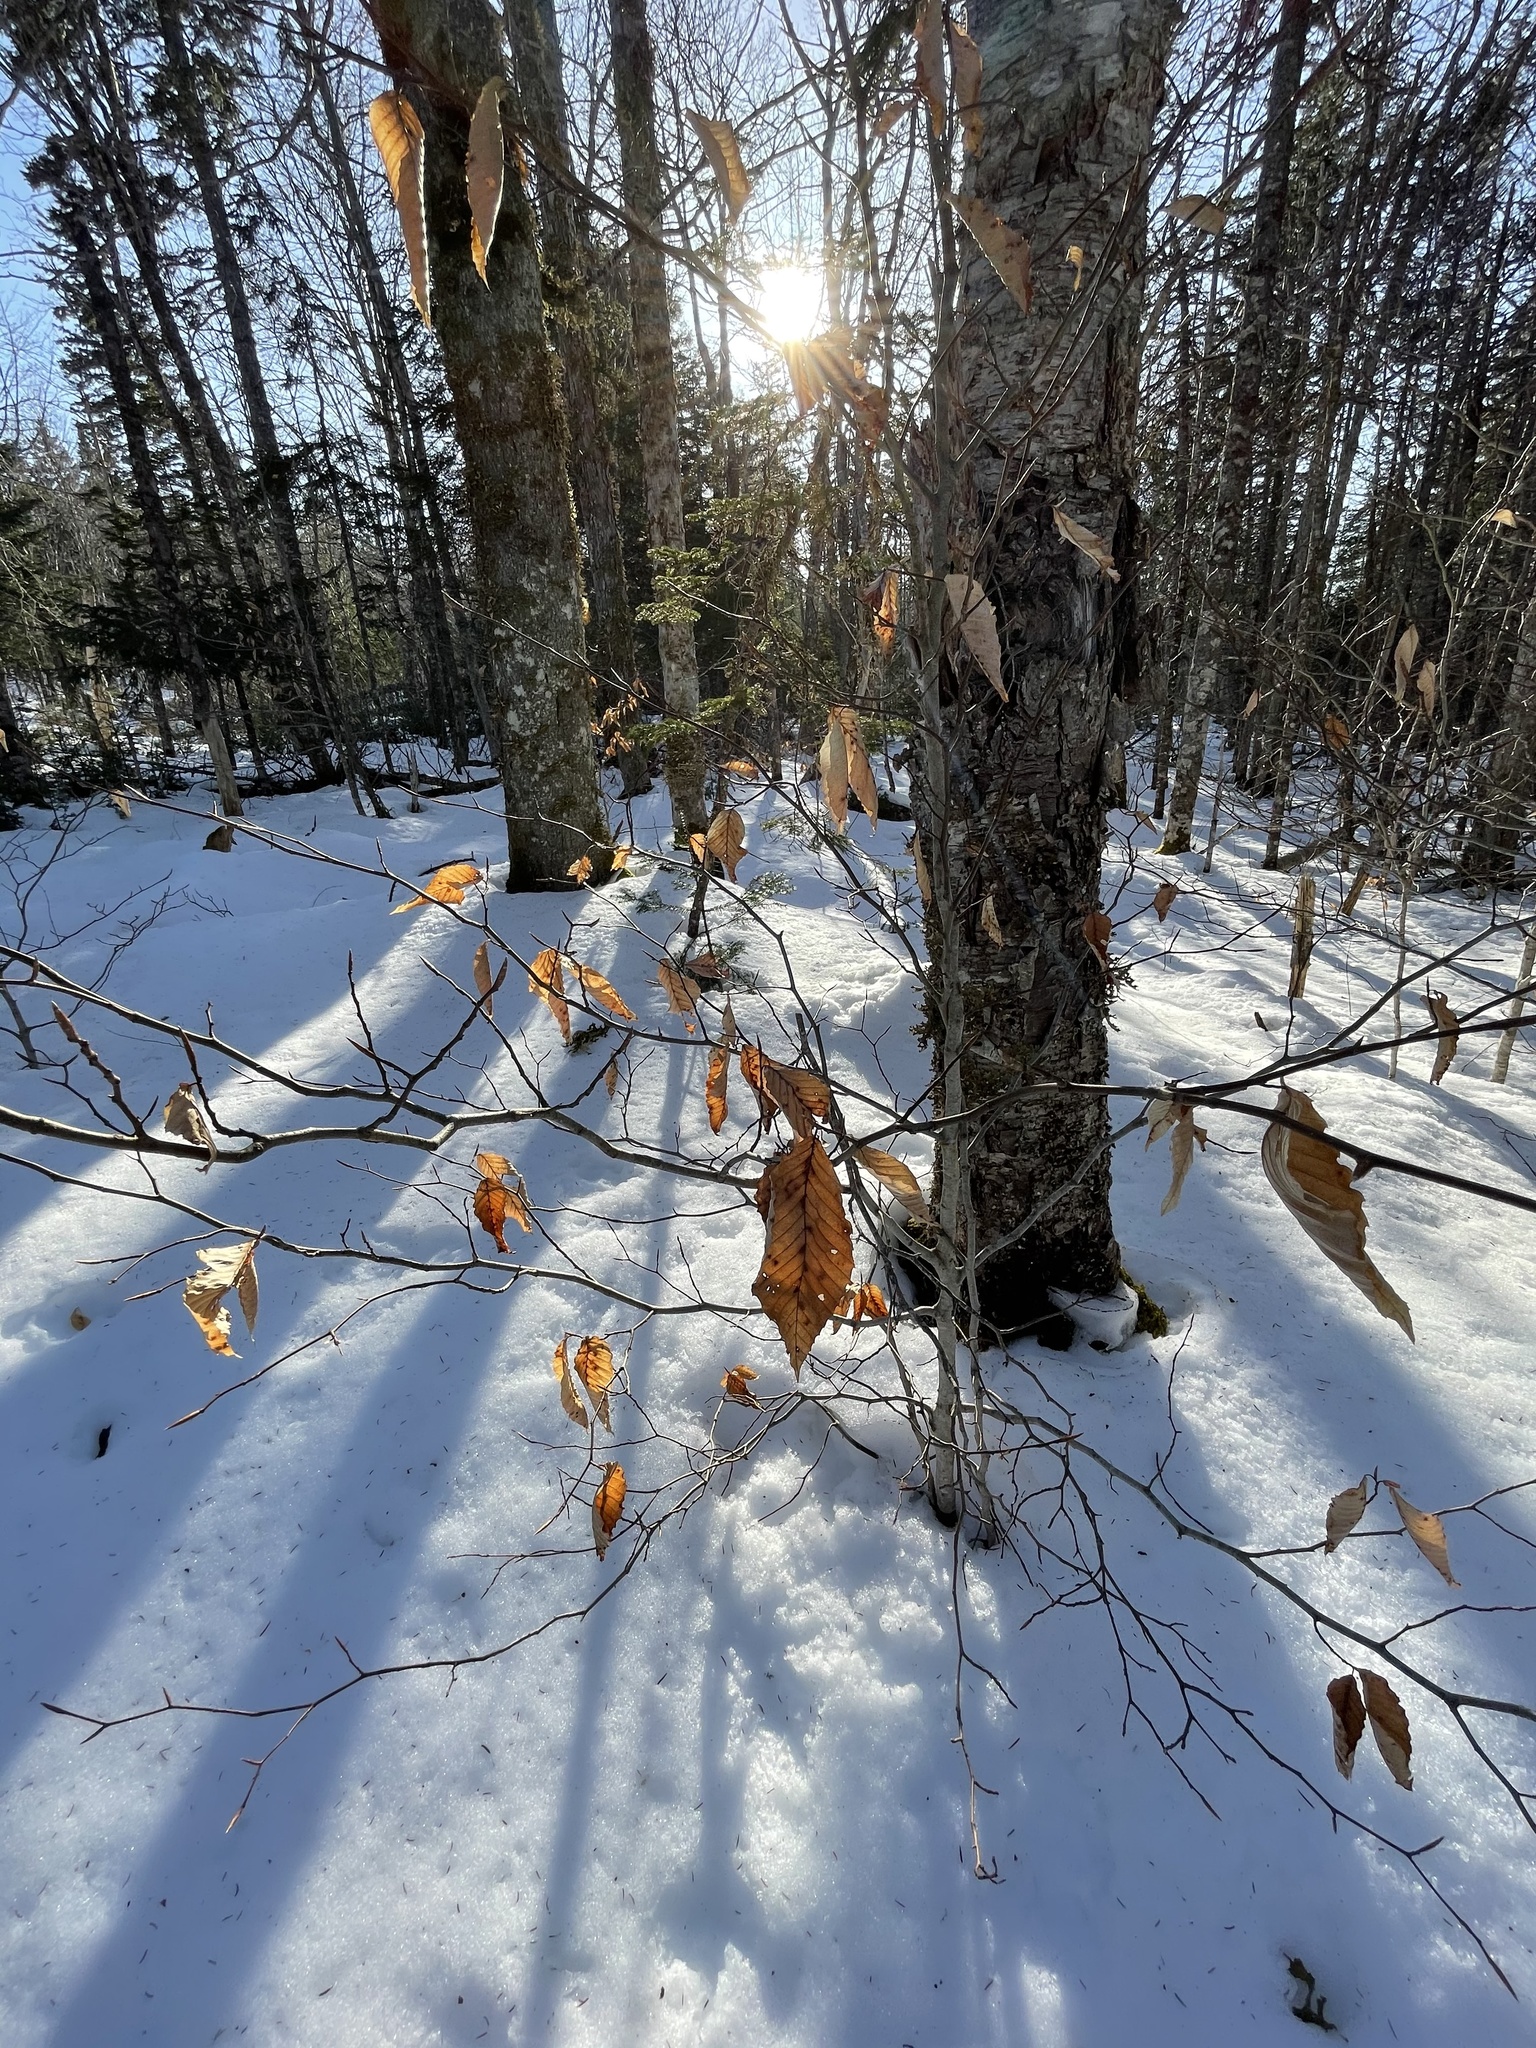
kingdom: Plantae
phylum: Tracheophyta
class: Magnoliopsida
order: Fagales
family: Fagaceae
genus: Fagus
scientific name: Fagus grandifolia
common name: American beech
